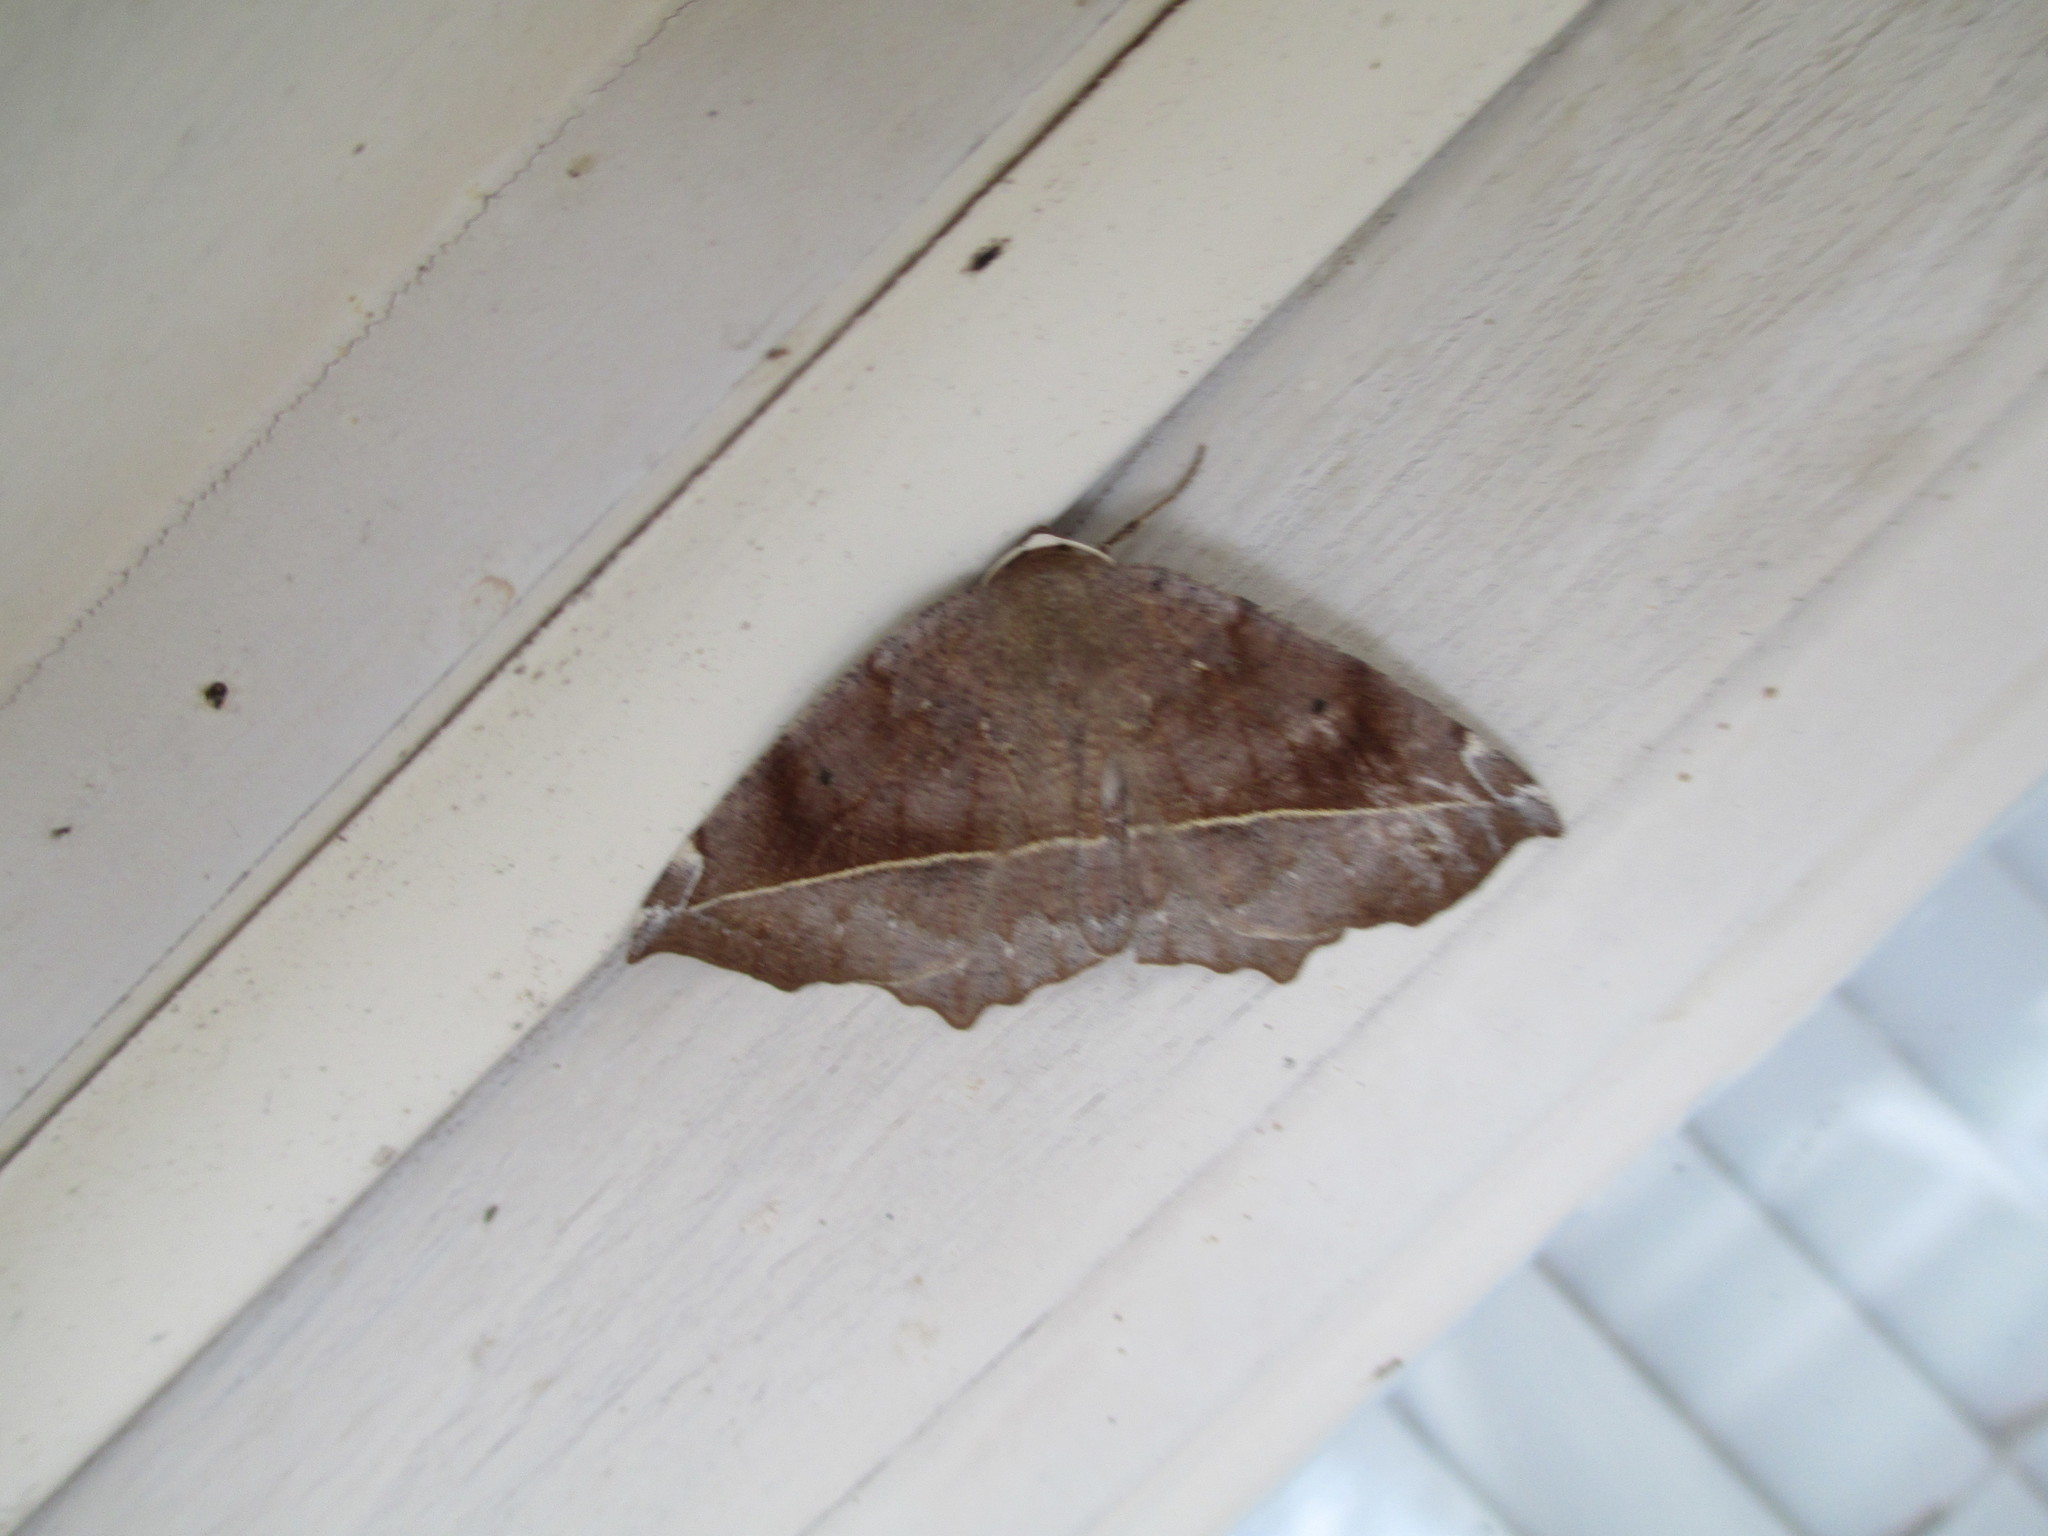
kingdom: Animalia
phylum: Arthropoda
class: Insecta
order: Lepidoptera
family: Geometridae
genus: Eutrapela
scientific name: Eutrapela clemataria
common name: Curved-toothed geometer
